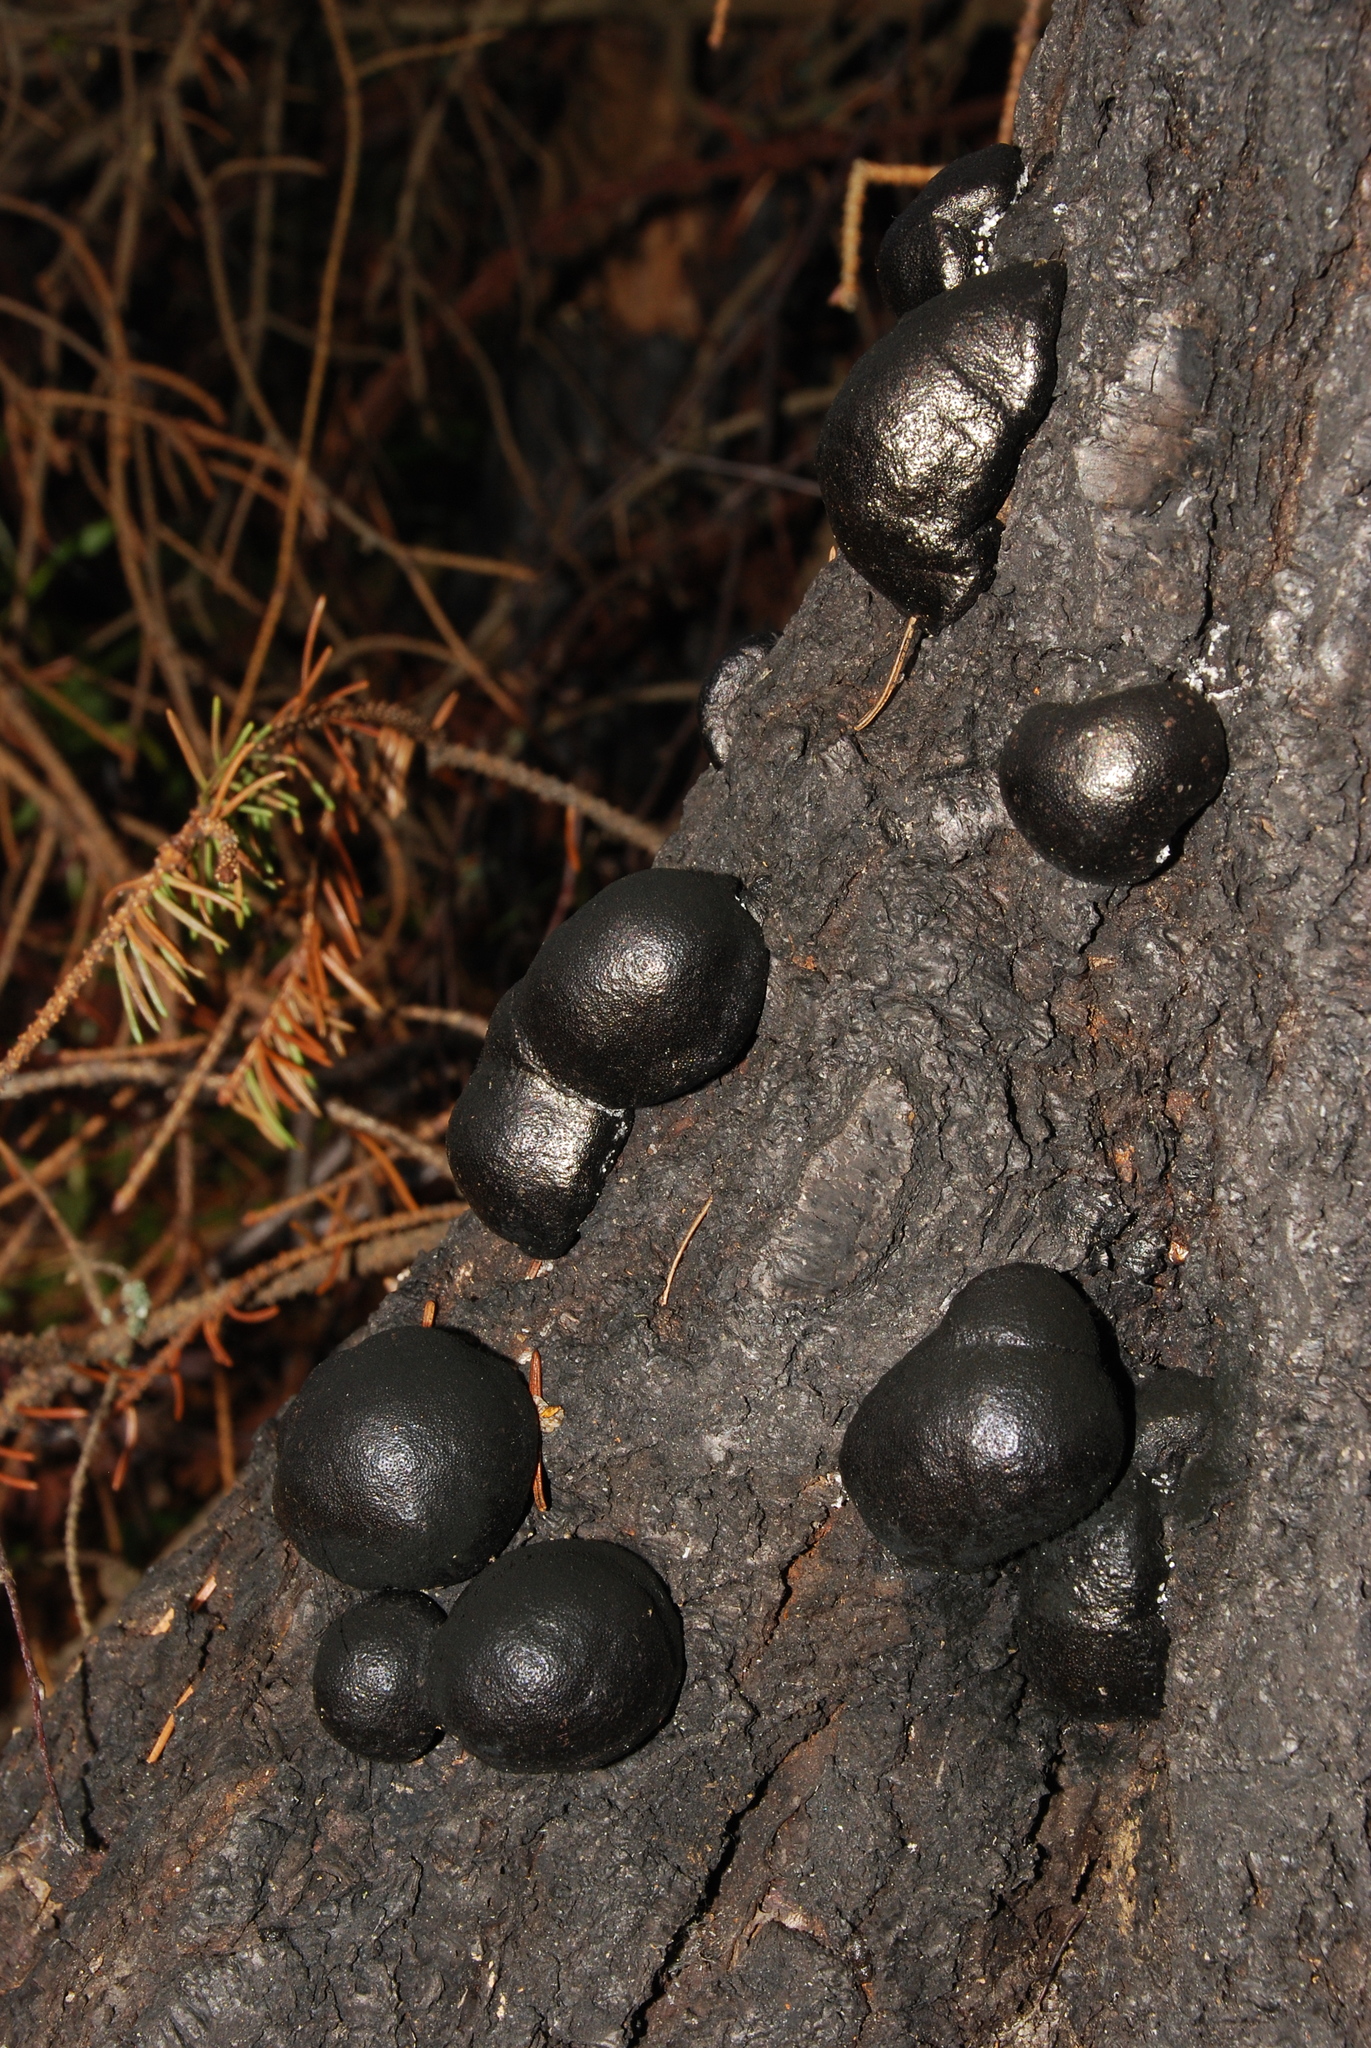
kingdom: Fungi
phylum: Ascomycota
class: Sordariomycetes
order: Xylariales
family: Hypoxylaceae
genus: Daldinia
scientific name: Daldinia loculata
